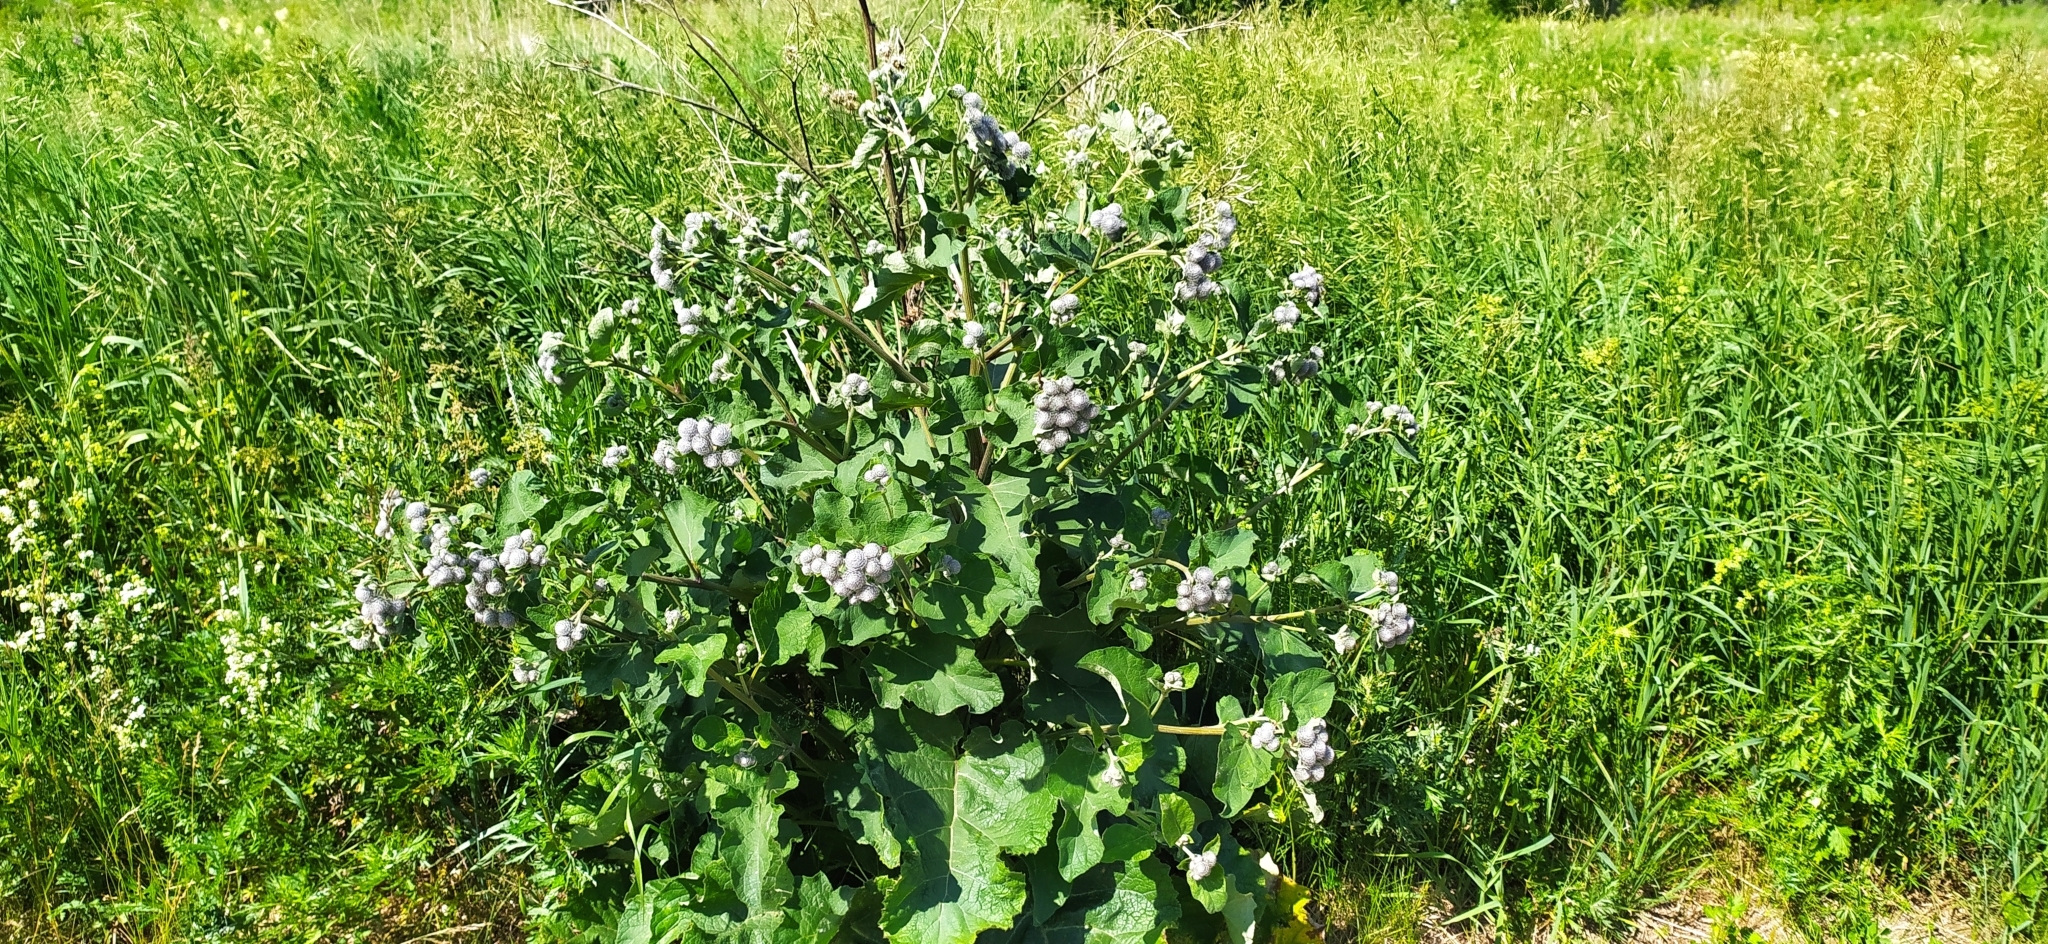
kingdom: Plantae
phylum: Tracheophyta
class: Magnoliopsida
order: Asterales
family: Asteraceae
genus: Arctium
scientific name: Arctium tomentosum
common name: Woolly burdock
